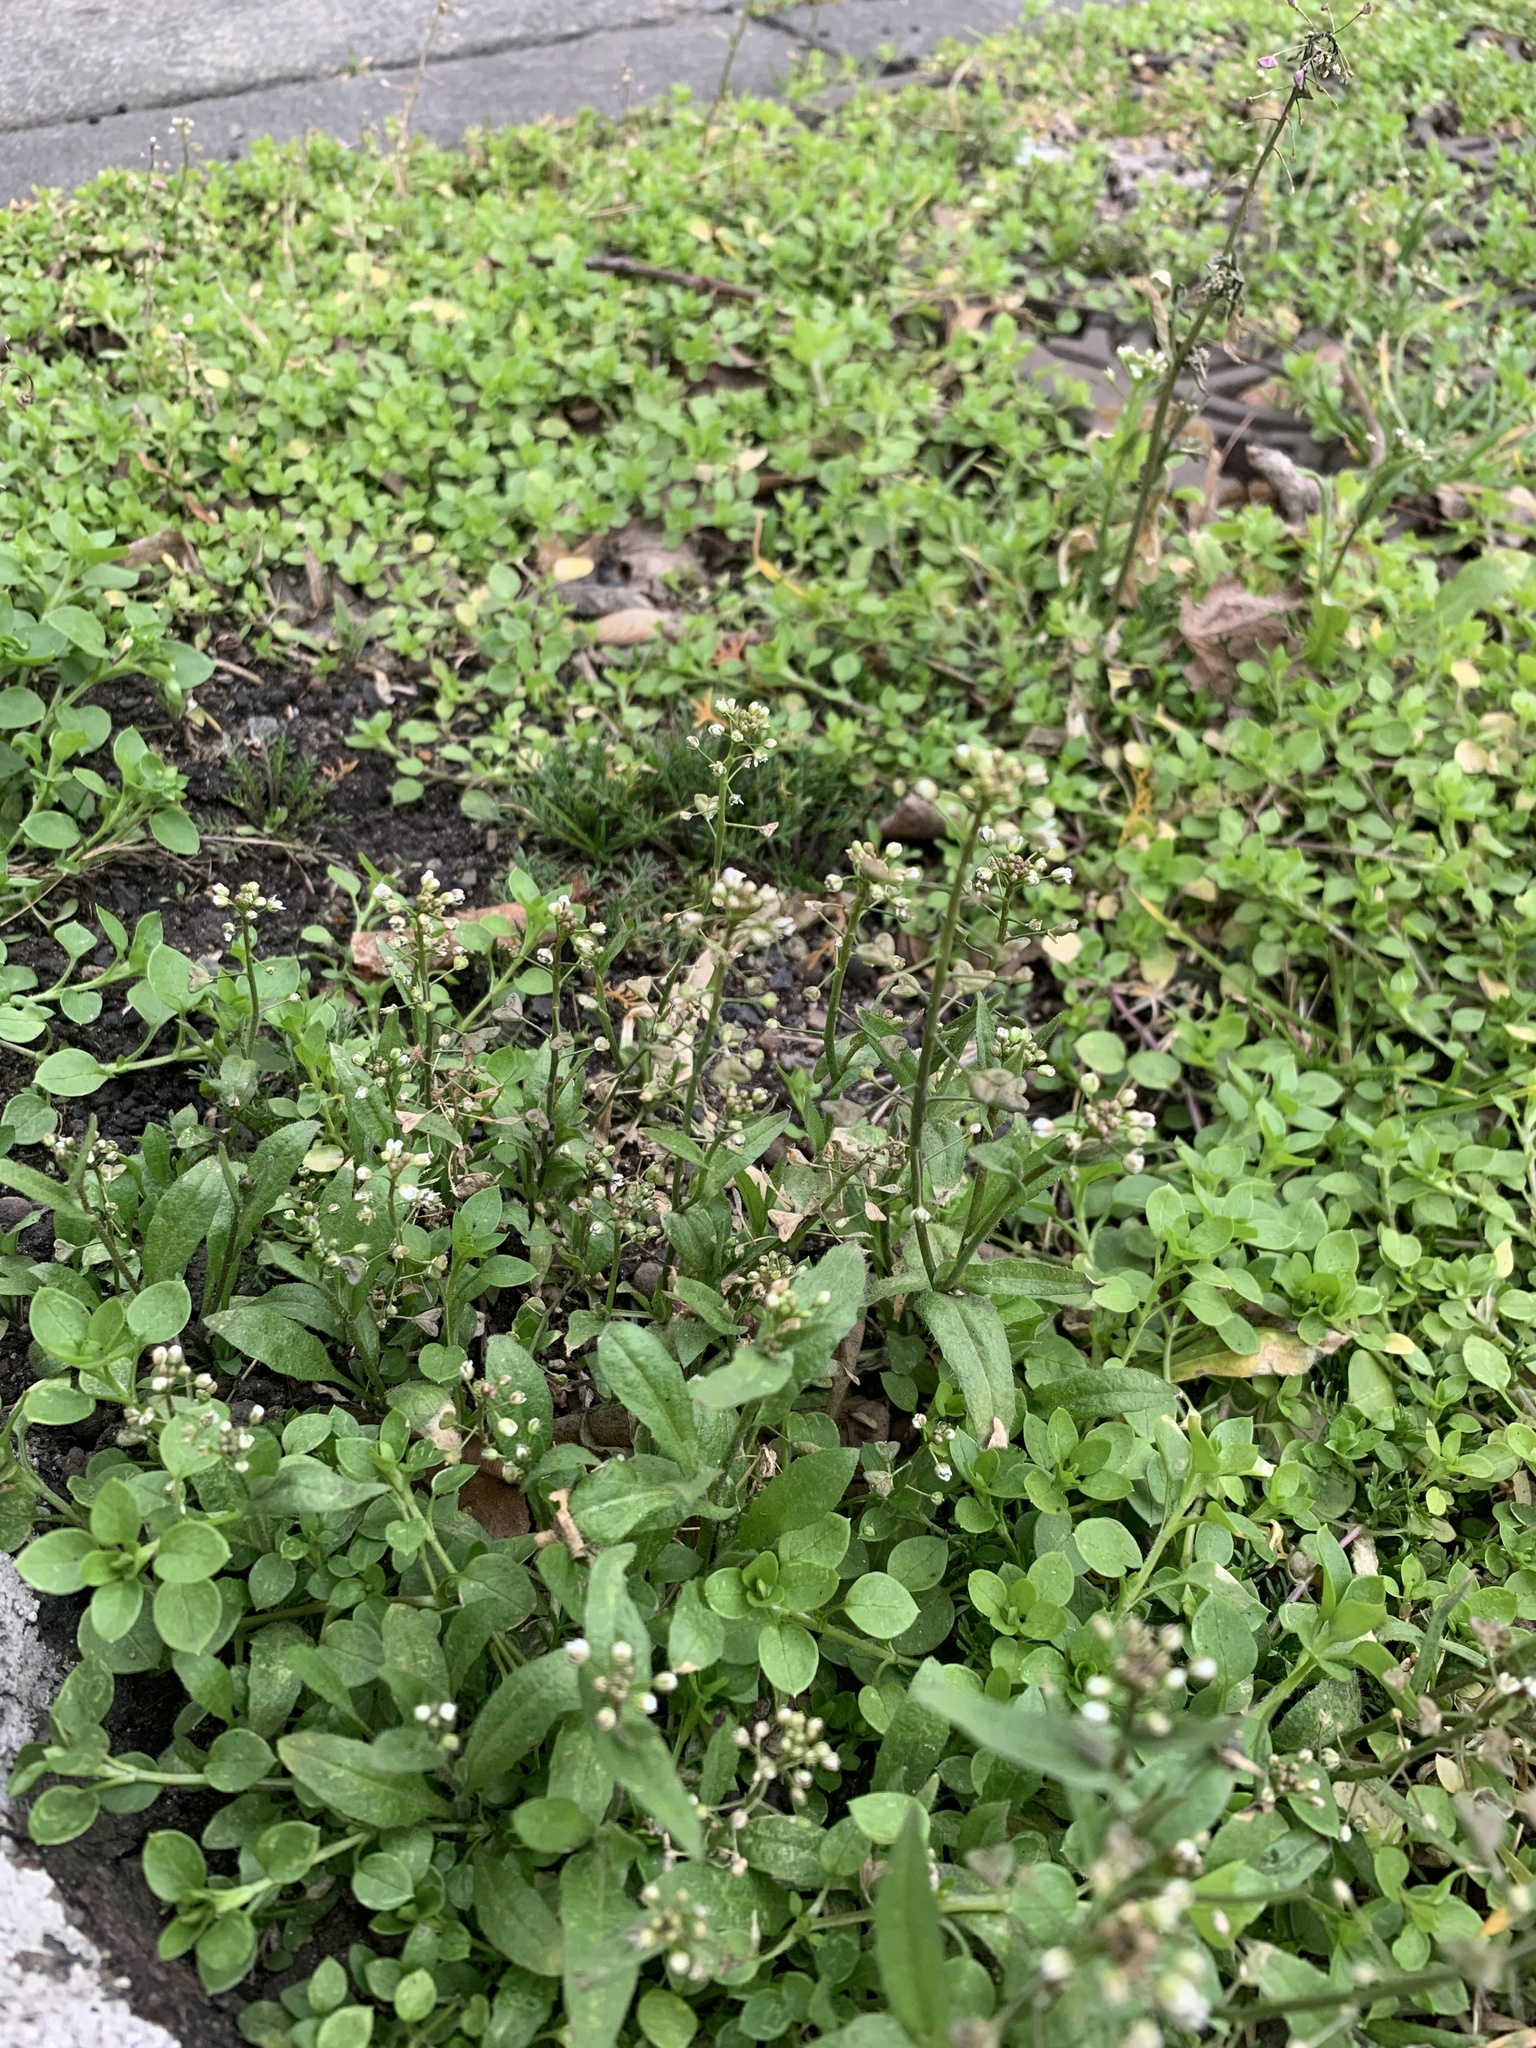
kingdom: Plantae
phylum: Tracheophyta
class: Magnoliopsida
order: Brassicales
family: Brassicaceae
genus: Capsella
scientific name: Capsella bursa-pastoris
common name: Shepherd's purse
